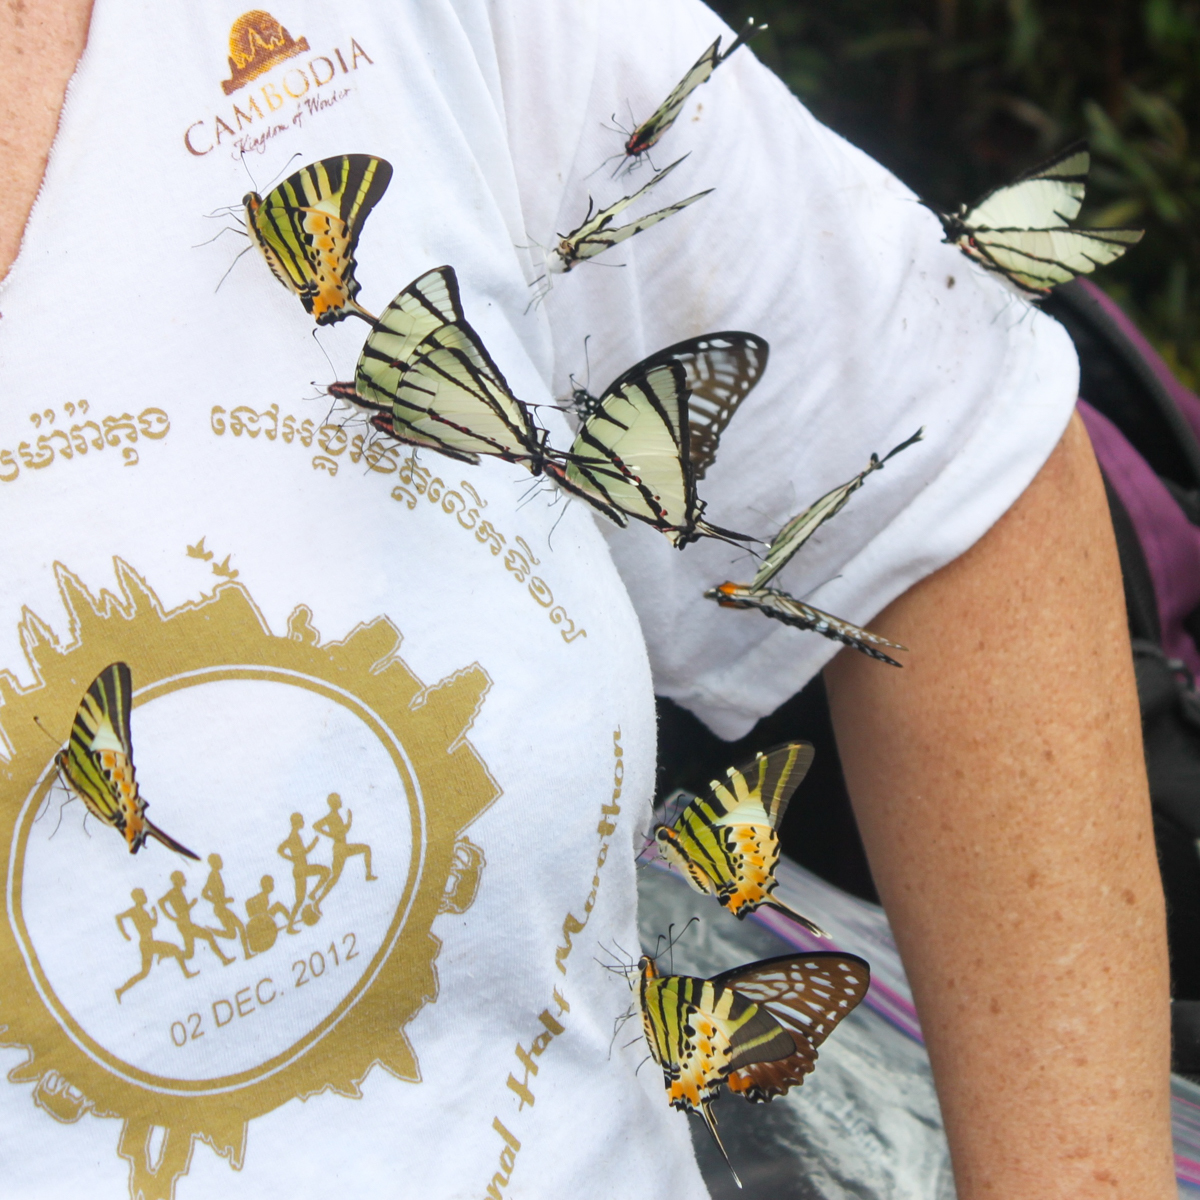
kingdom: Animalia
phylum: Arthropoda
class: Insecta
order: Lepidoptera
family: Papilionidae
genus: Graphium
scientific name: Graphium agetes
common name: Fourbar swordtail
